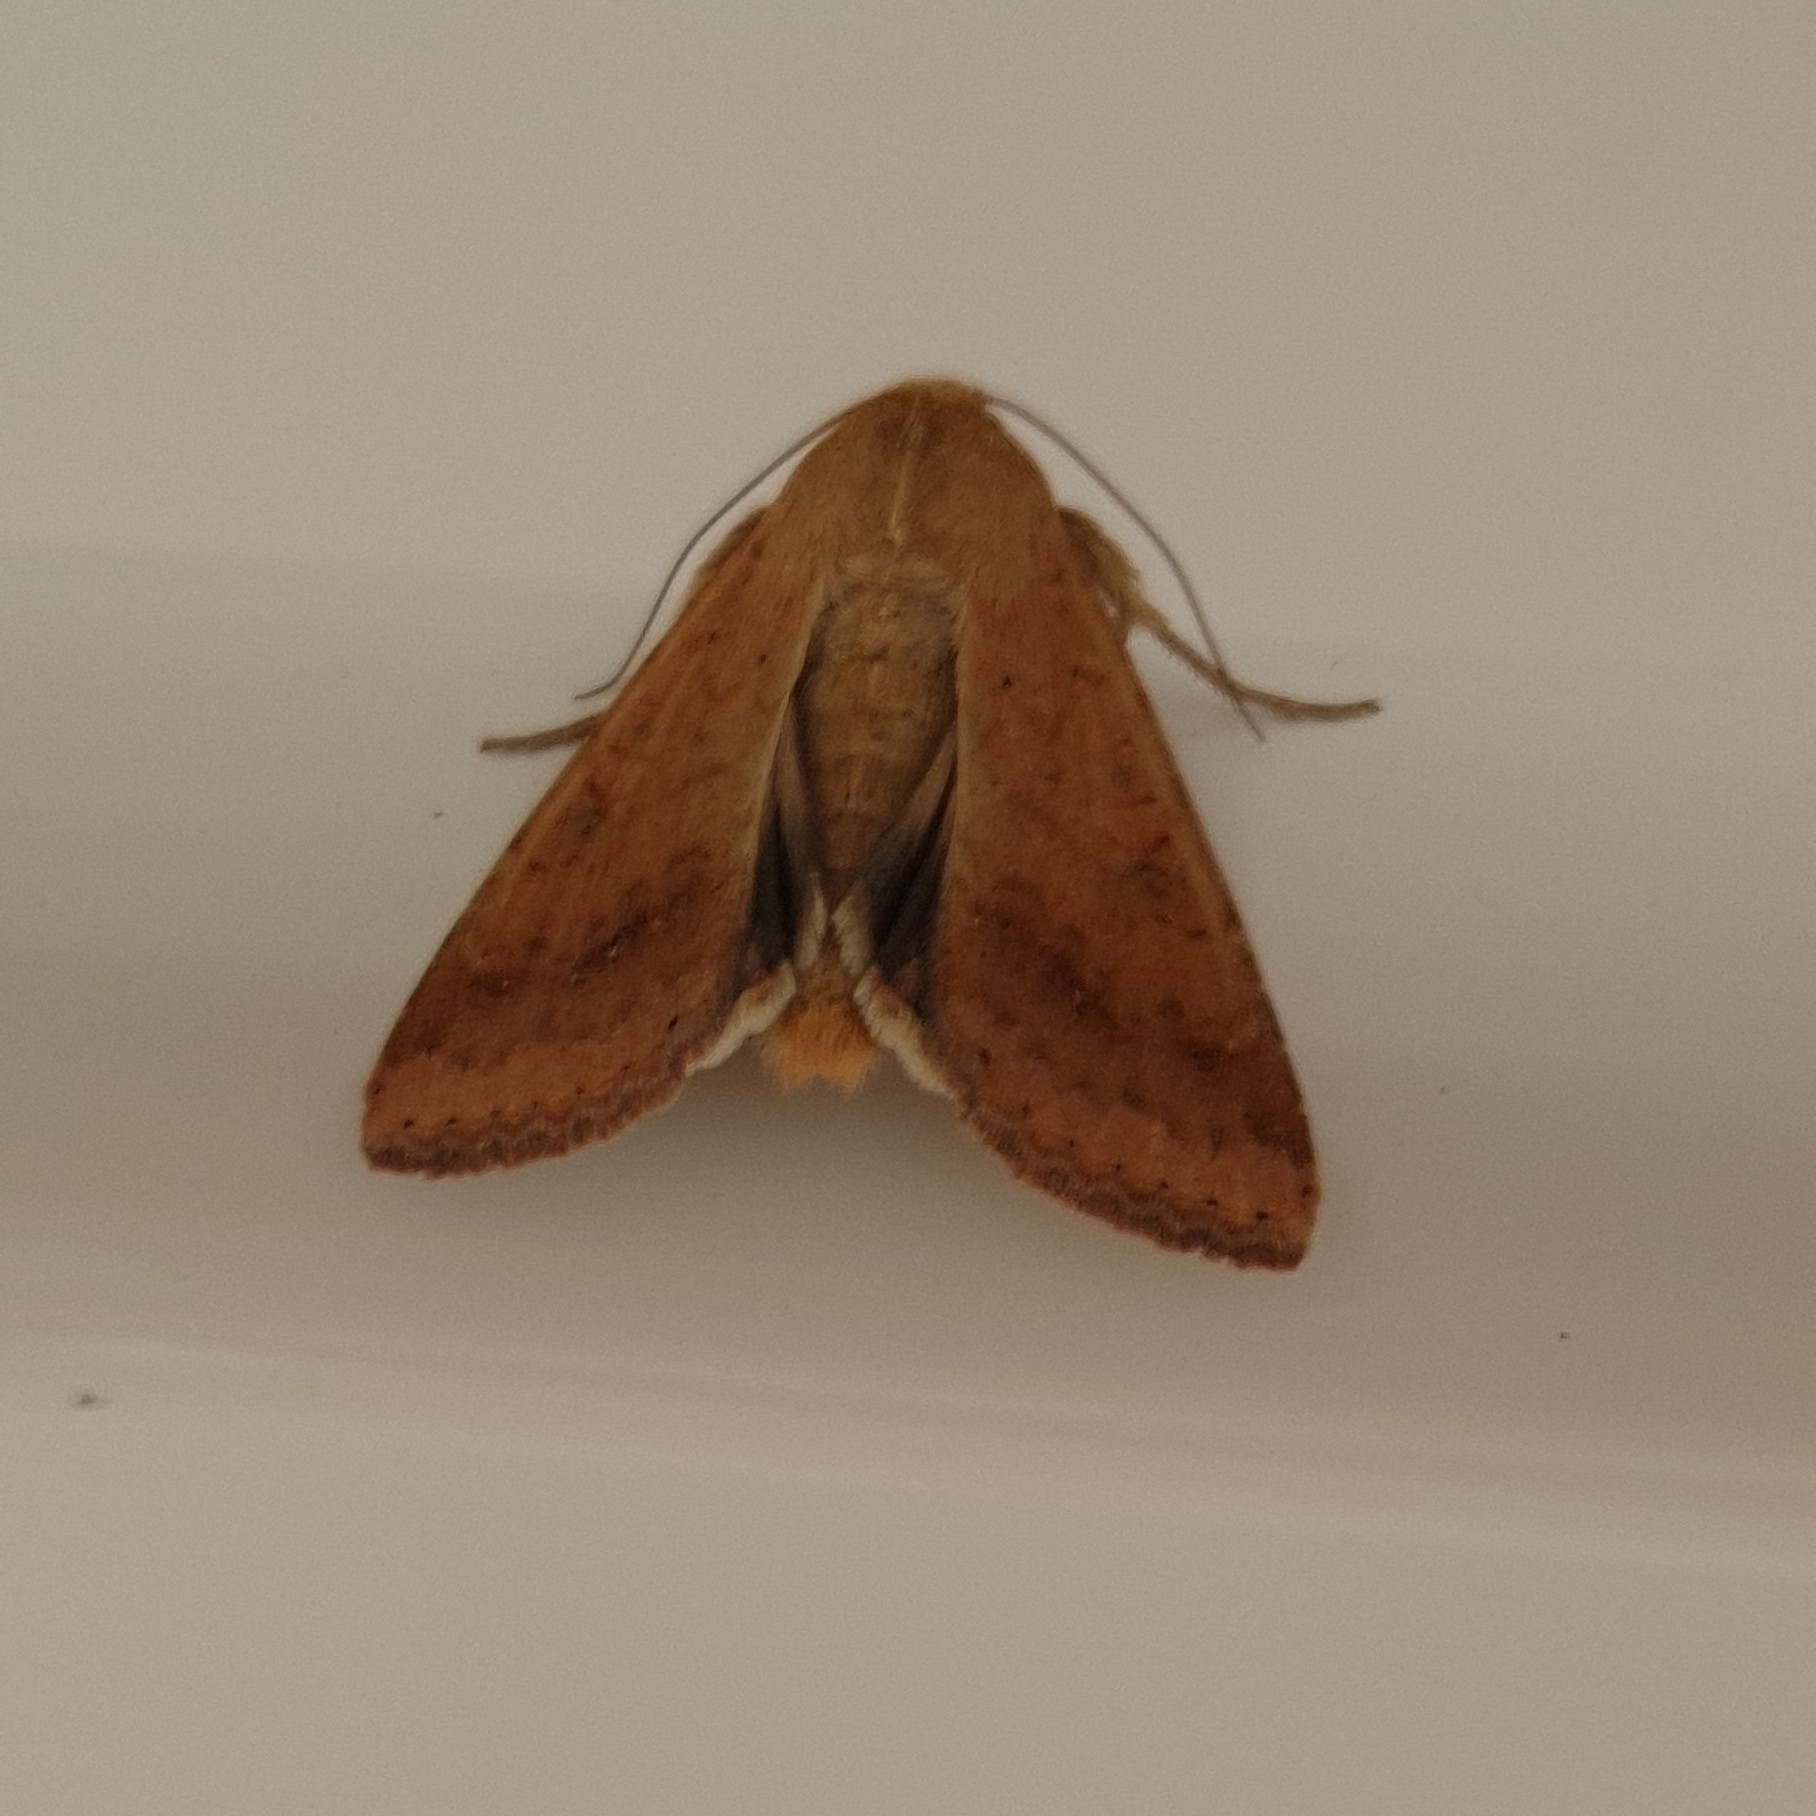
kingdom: Animalia
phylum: Arthropoda
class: Insecta
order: Lepidoptera
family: Noctuidae
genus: Helicoverpa
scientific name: Helicoverpa armigera
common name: Cotton bollworm
